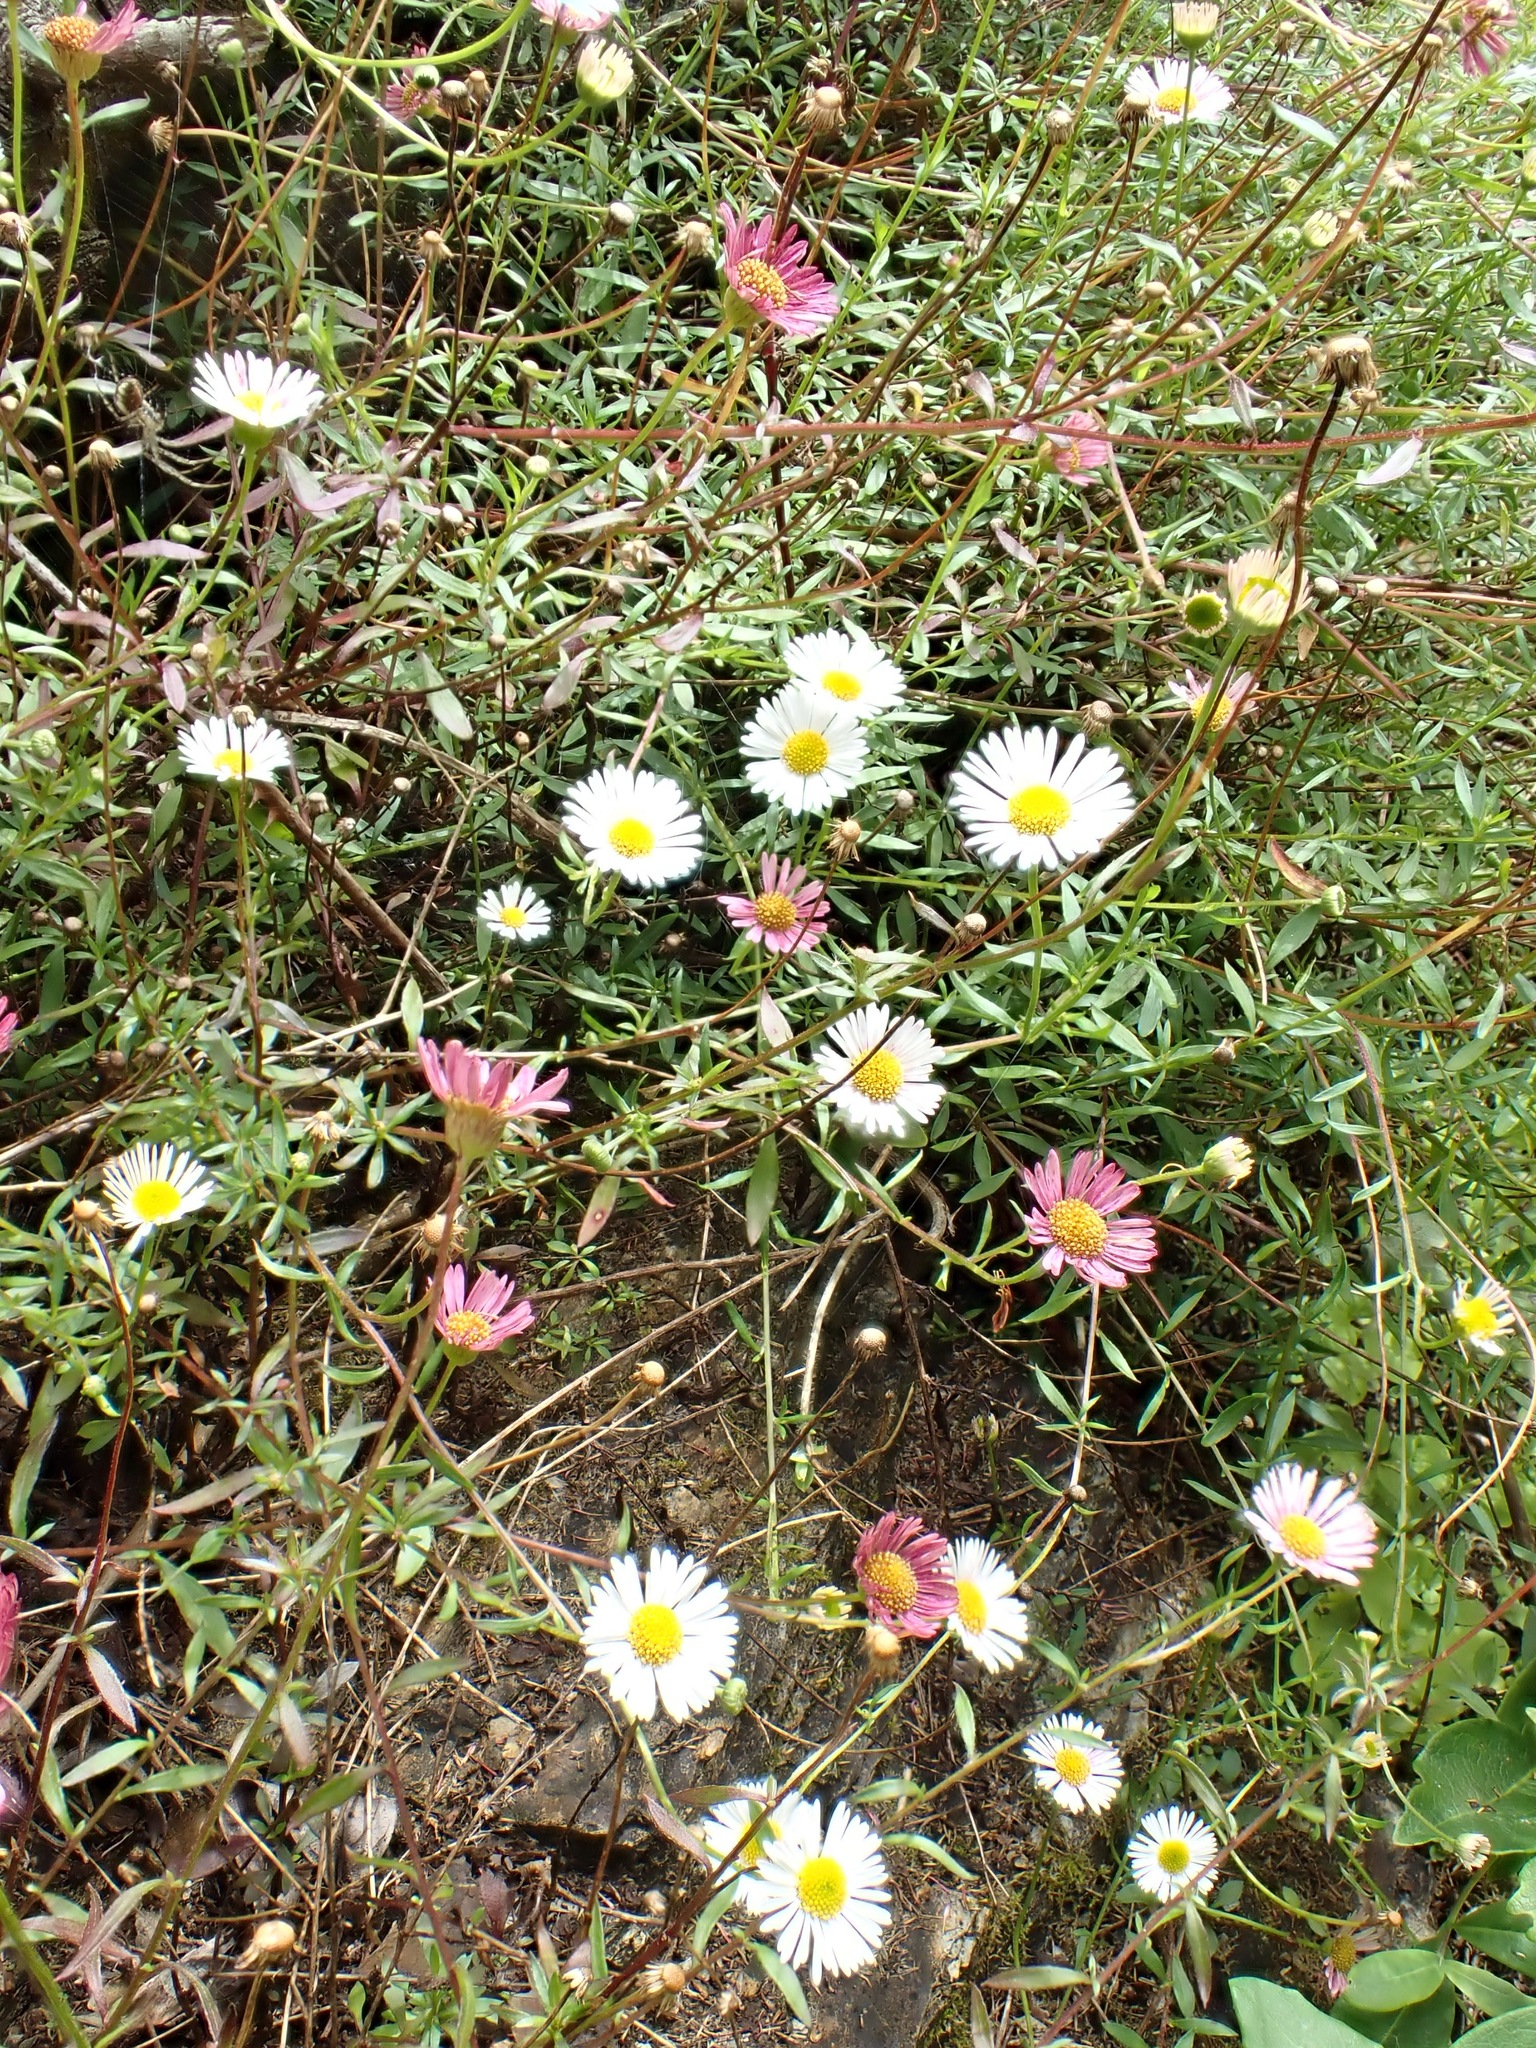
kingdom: Plantae
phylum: Tracheophyta
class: Magnoliopsida
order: Asterales
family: Asteraceae
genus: Erigeron
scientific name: Erigeron karvinskianus
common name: Mexican fleabane
